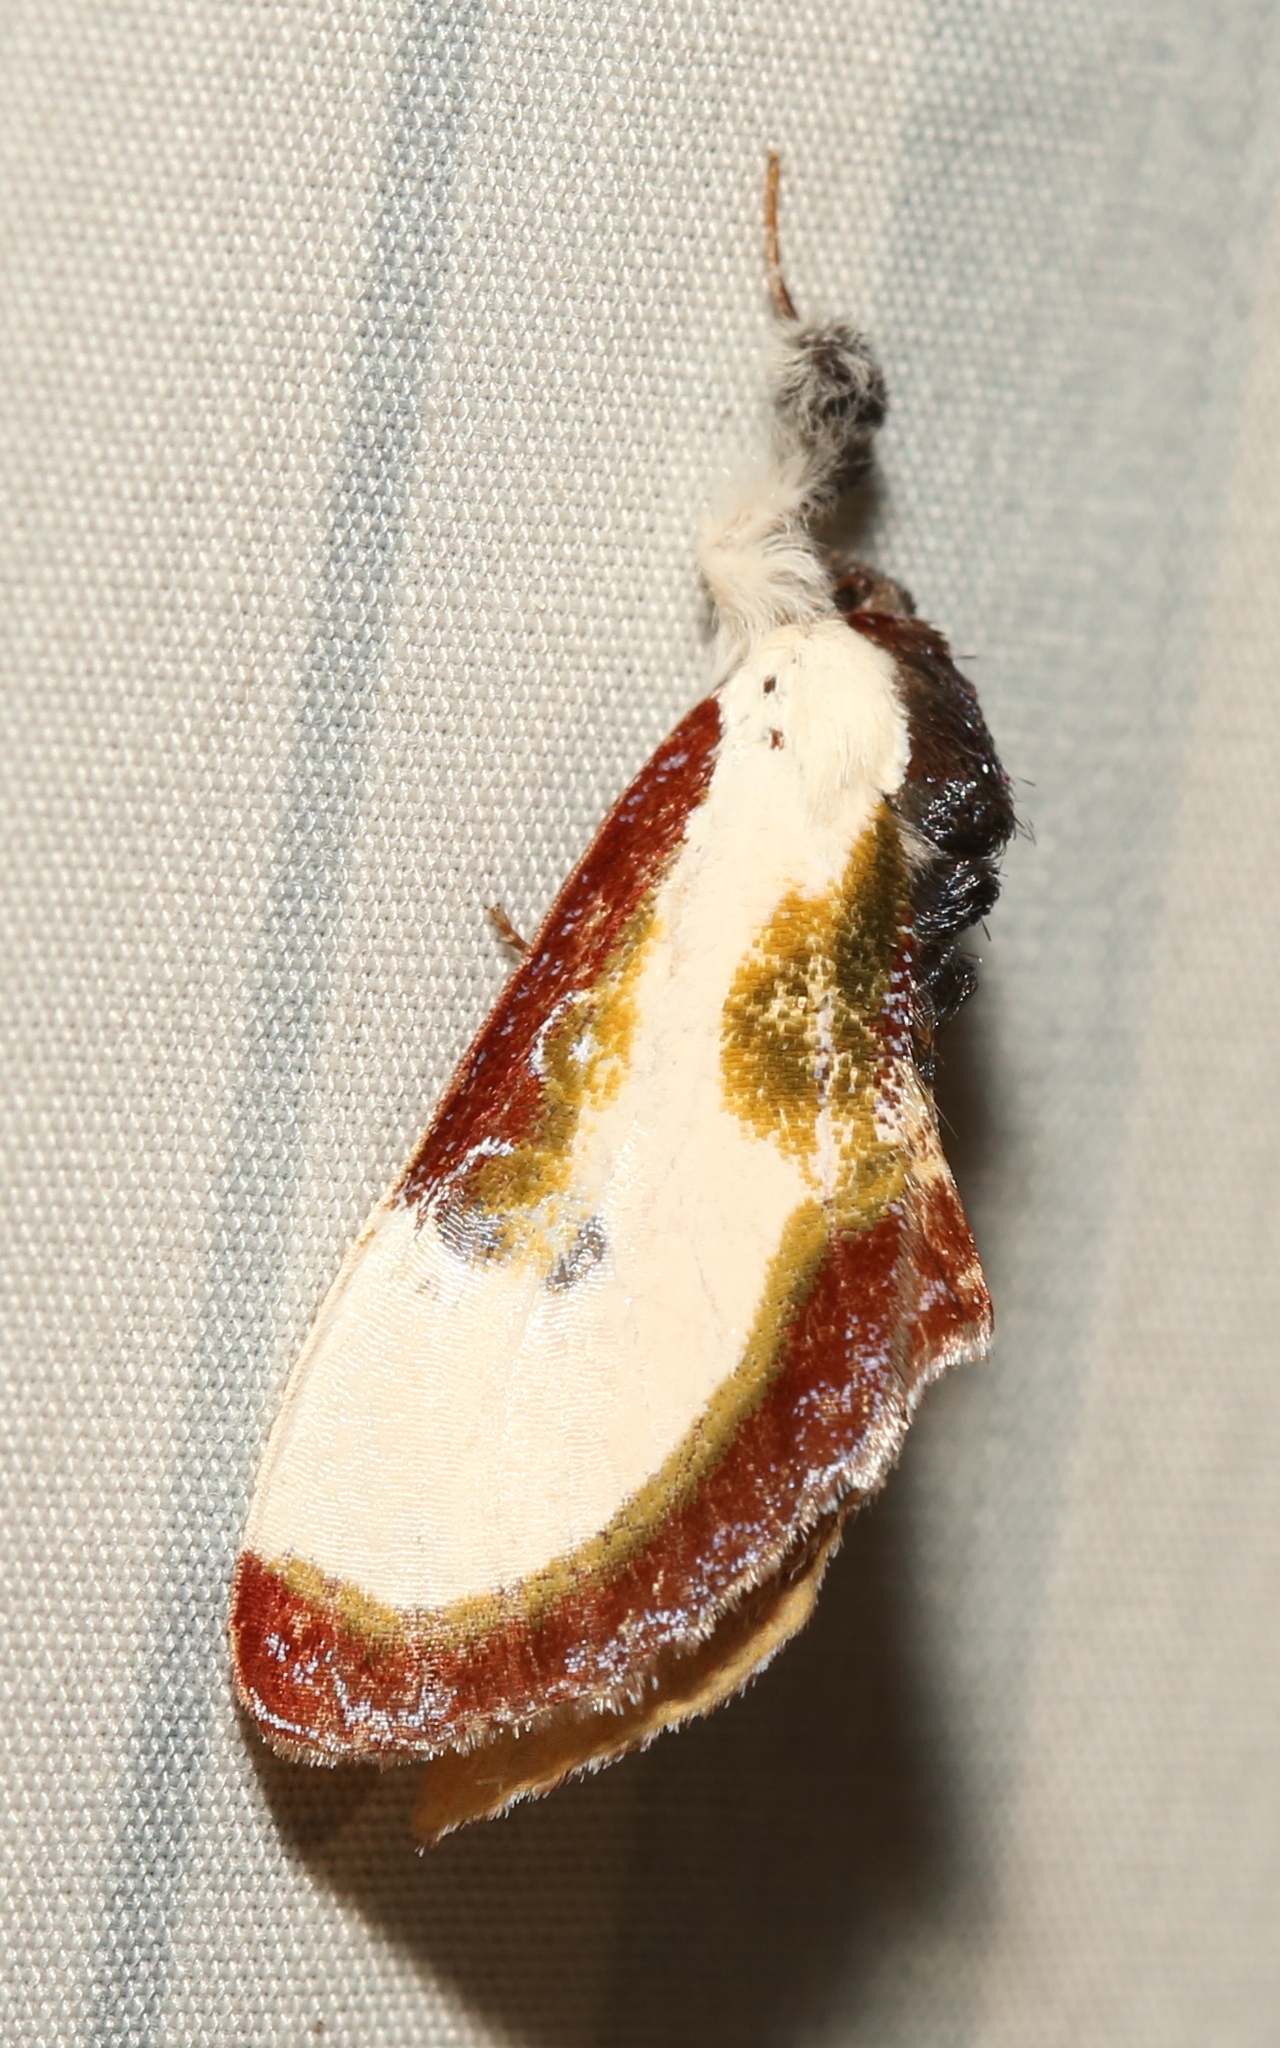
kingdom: Animalia
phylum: Arthropoda
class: Insecta
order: Lepidoptera
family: Noctuidae
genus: Eudryas
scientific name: Eudryas grata
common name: Beautiful wood-nymph
